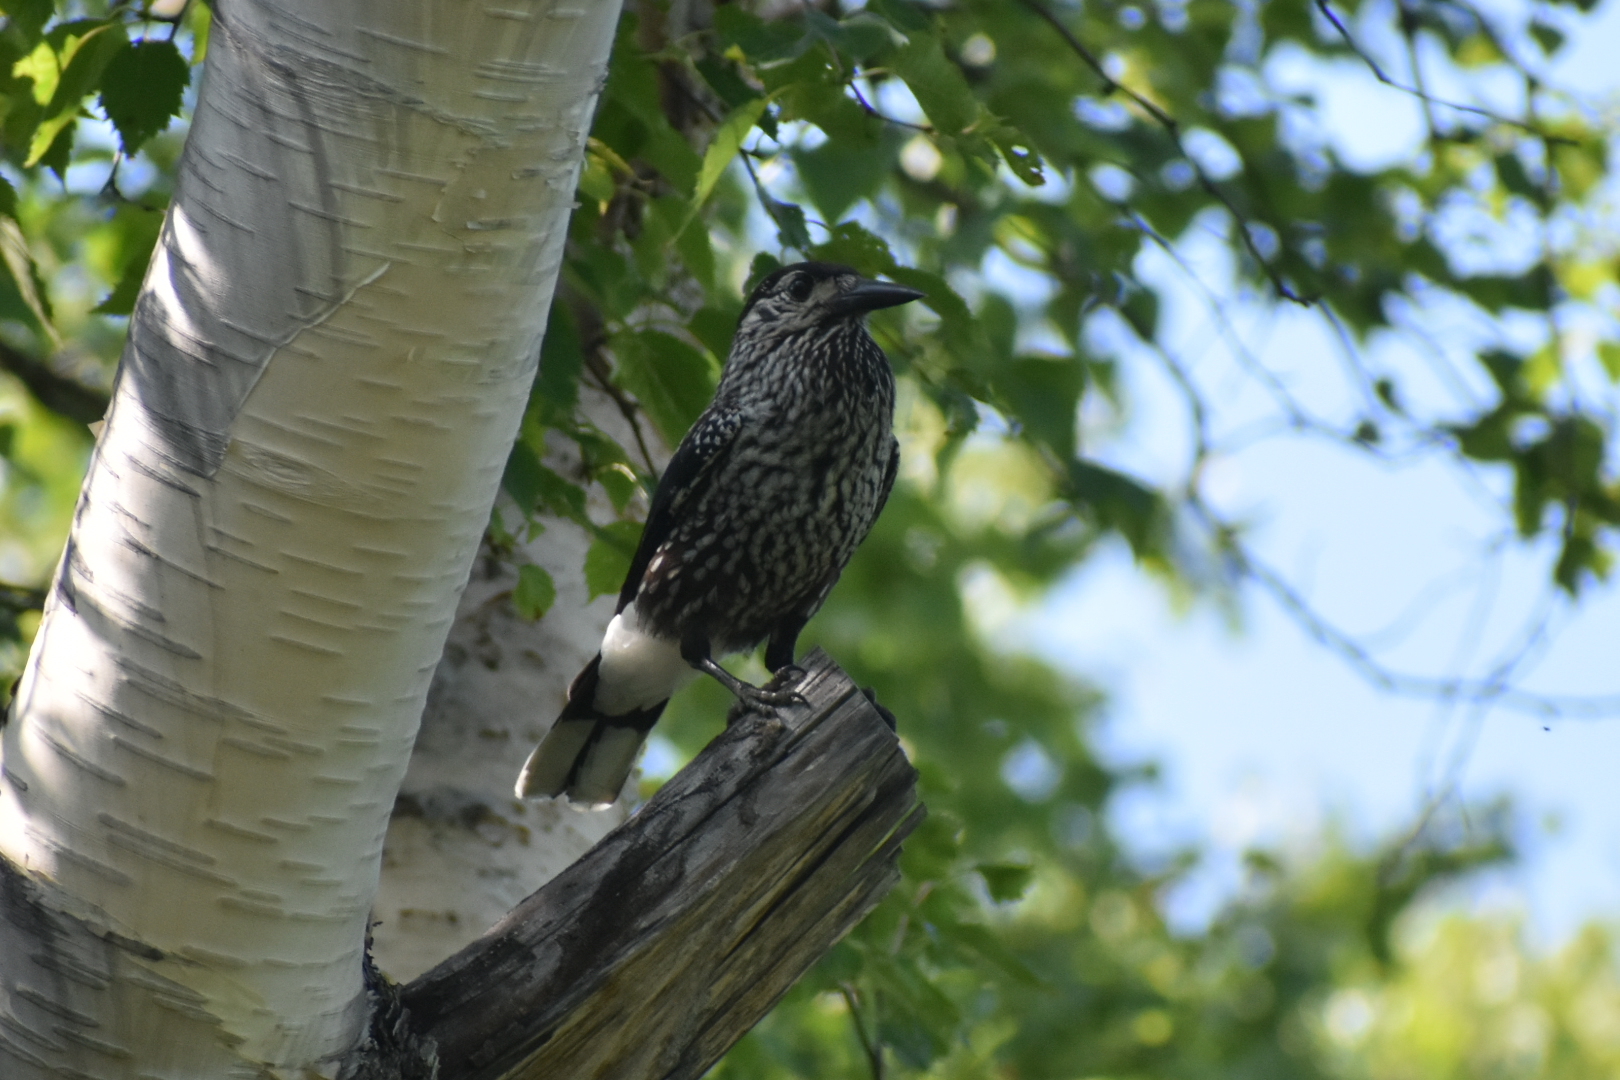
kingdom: Animalia
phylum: Chordata
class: Aves
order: Passeriformes
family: Corvidae
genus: Nucifraga
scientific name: Nucifraga caryocatactes
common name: Spotted nutcracker
